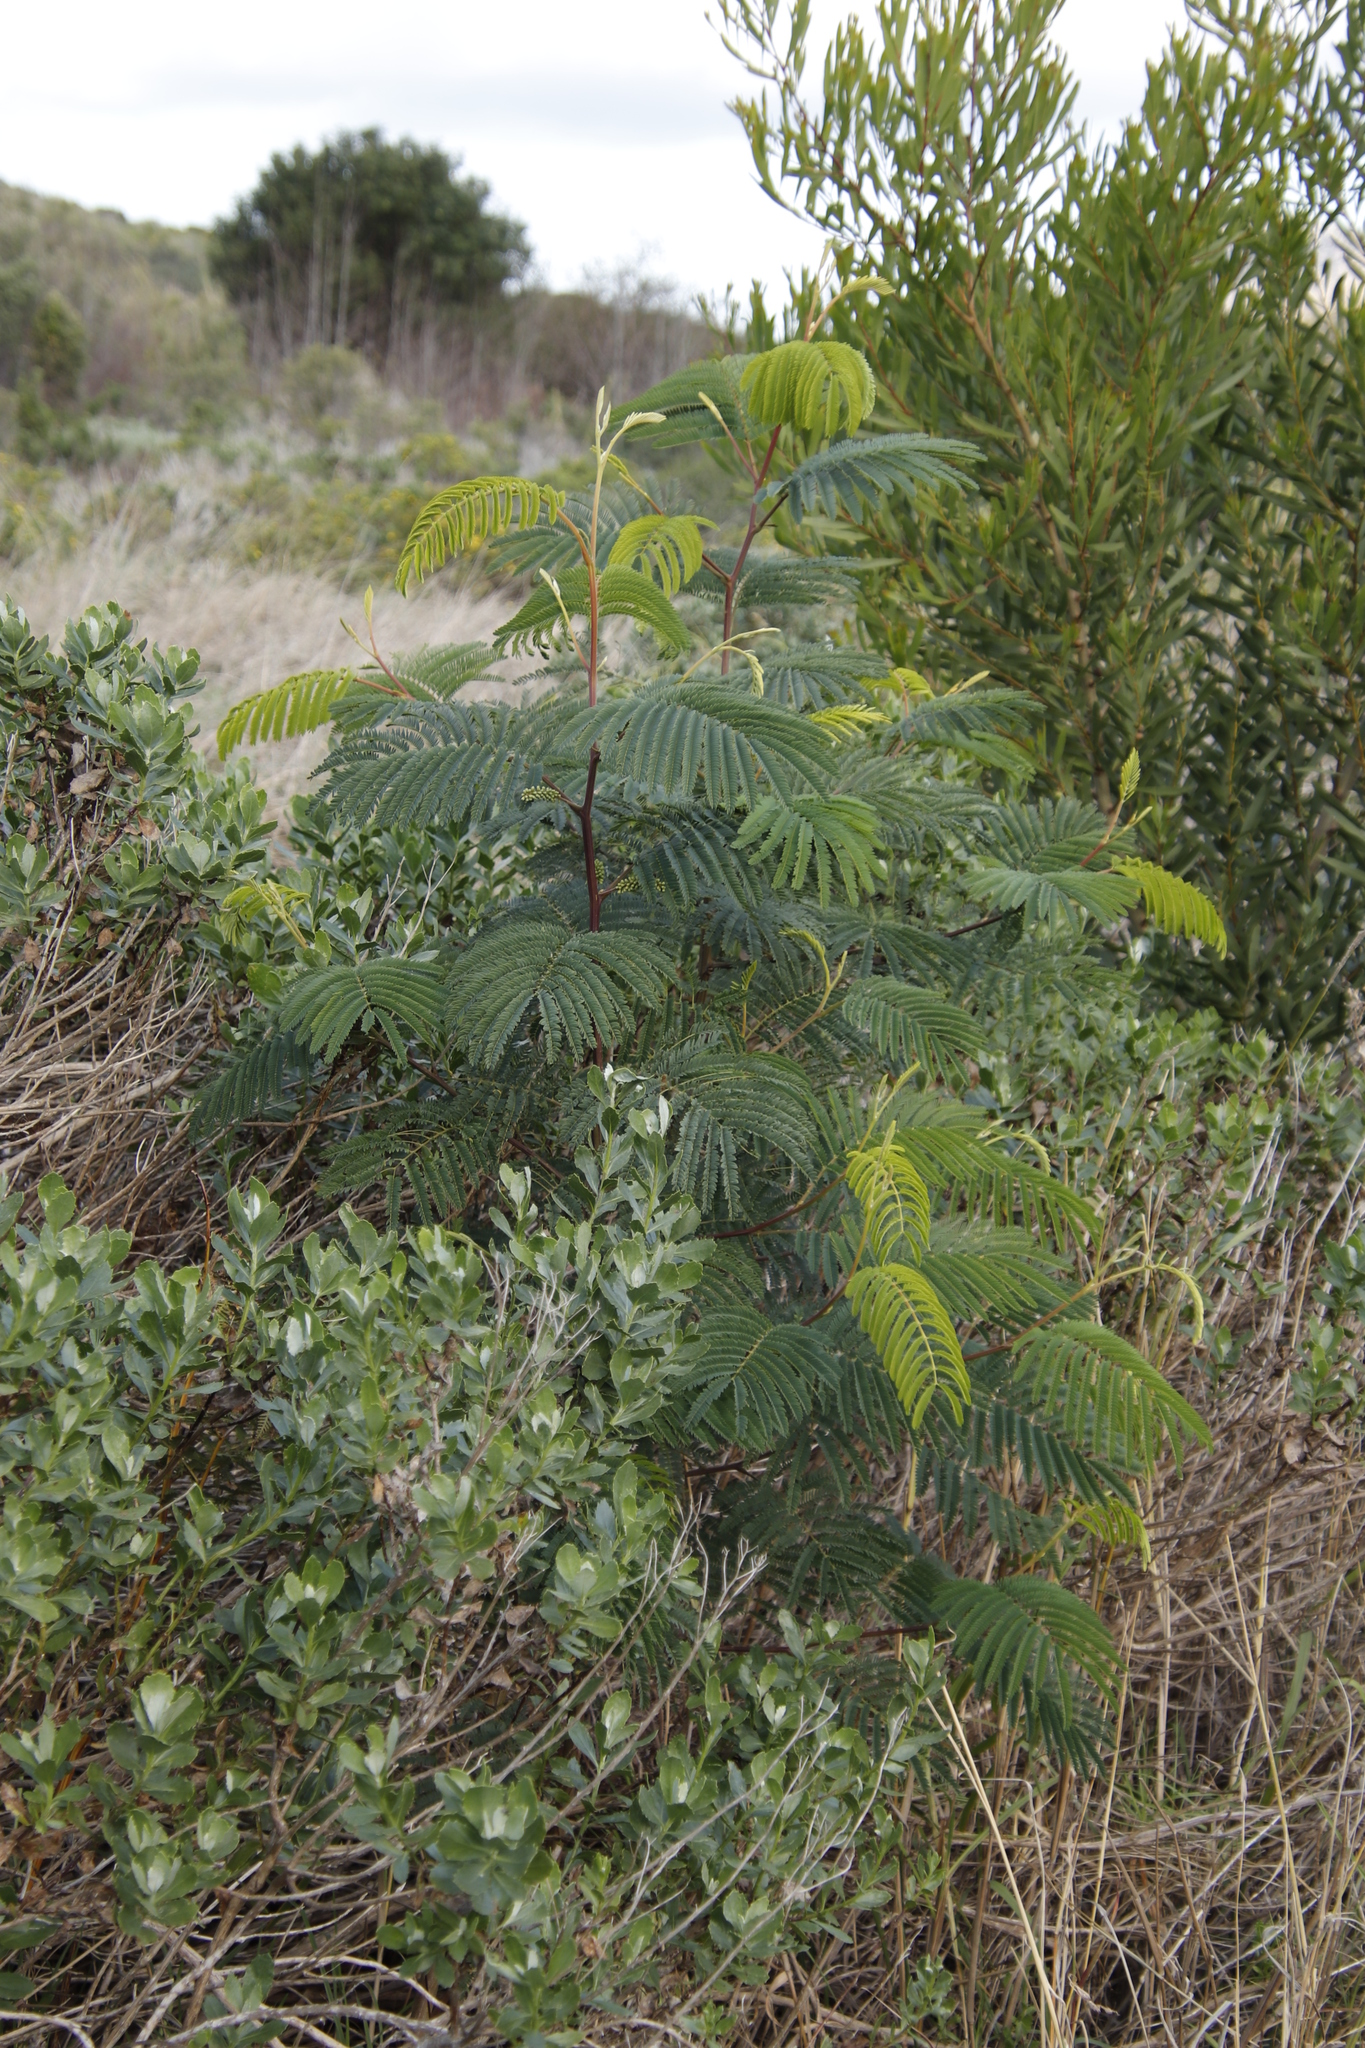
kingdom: Plantae
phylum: Tracheophyta
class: Magnoliopsida
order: Fabales
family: Fabaceae
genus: Paraserianthes
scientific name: Paraserianthes lophantha
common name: Plume albizia
